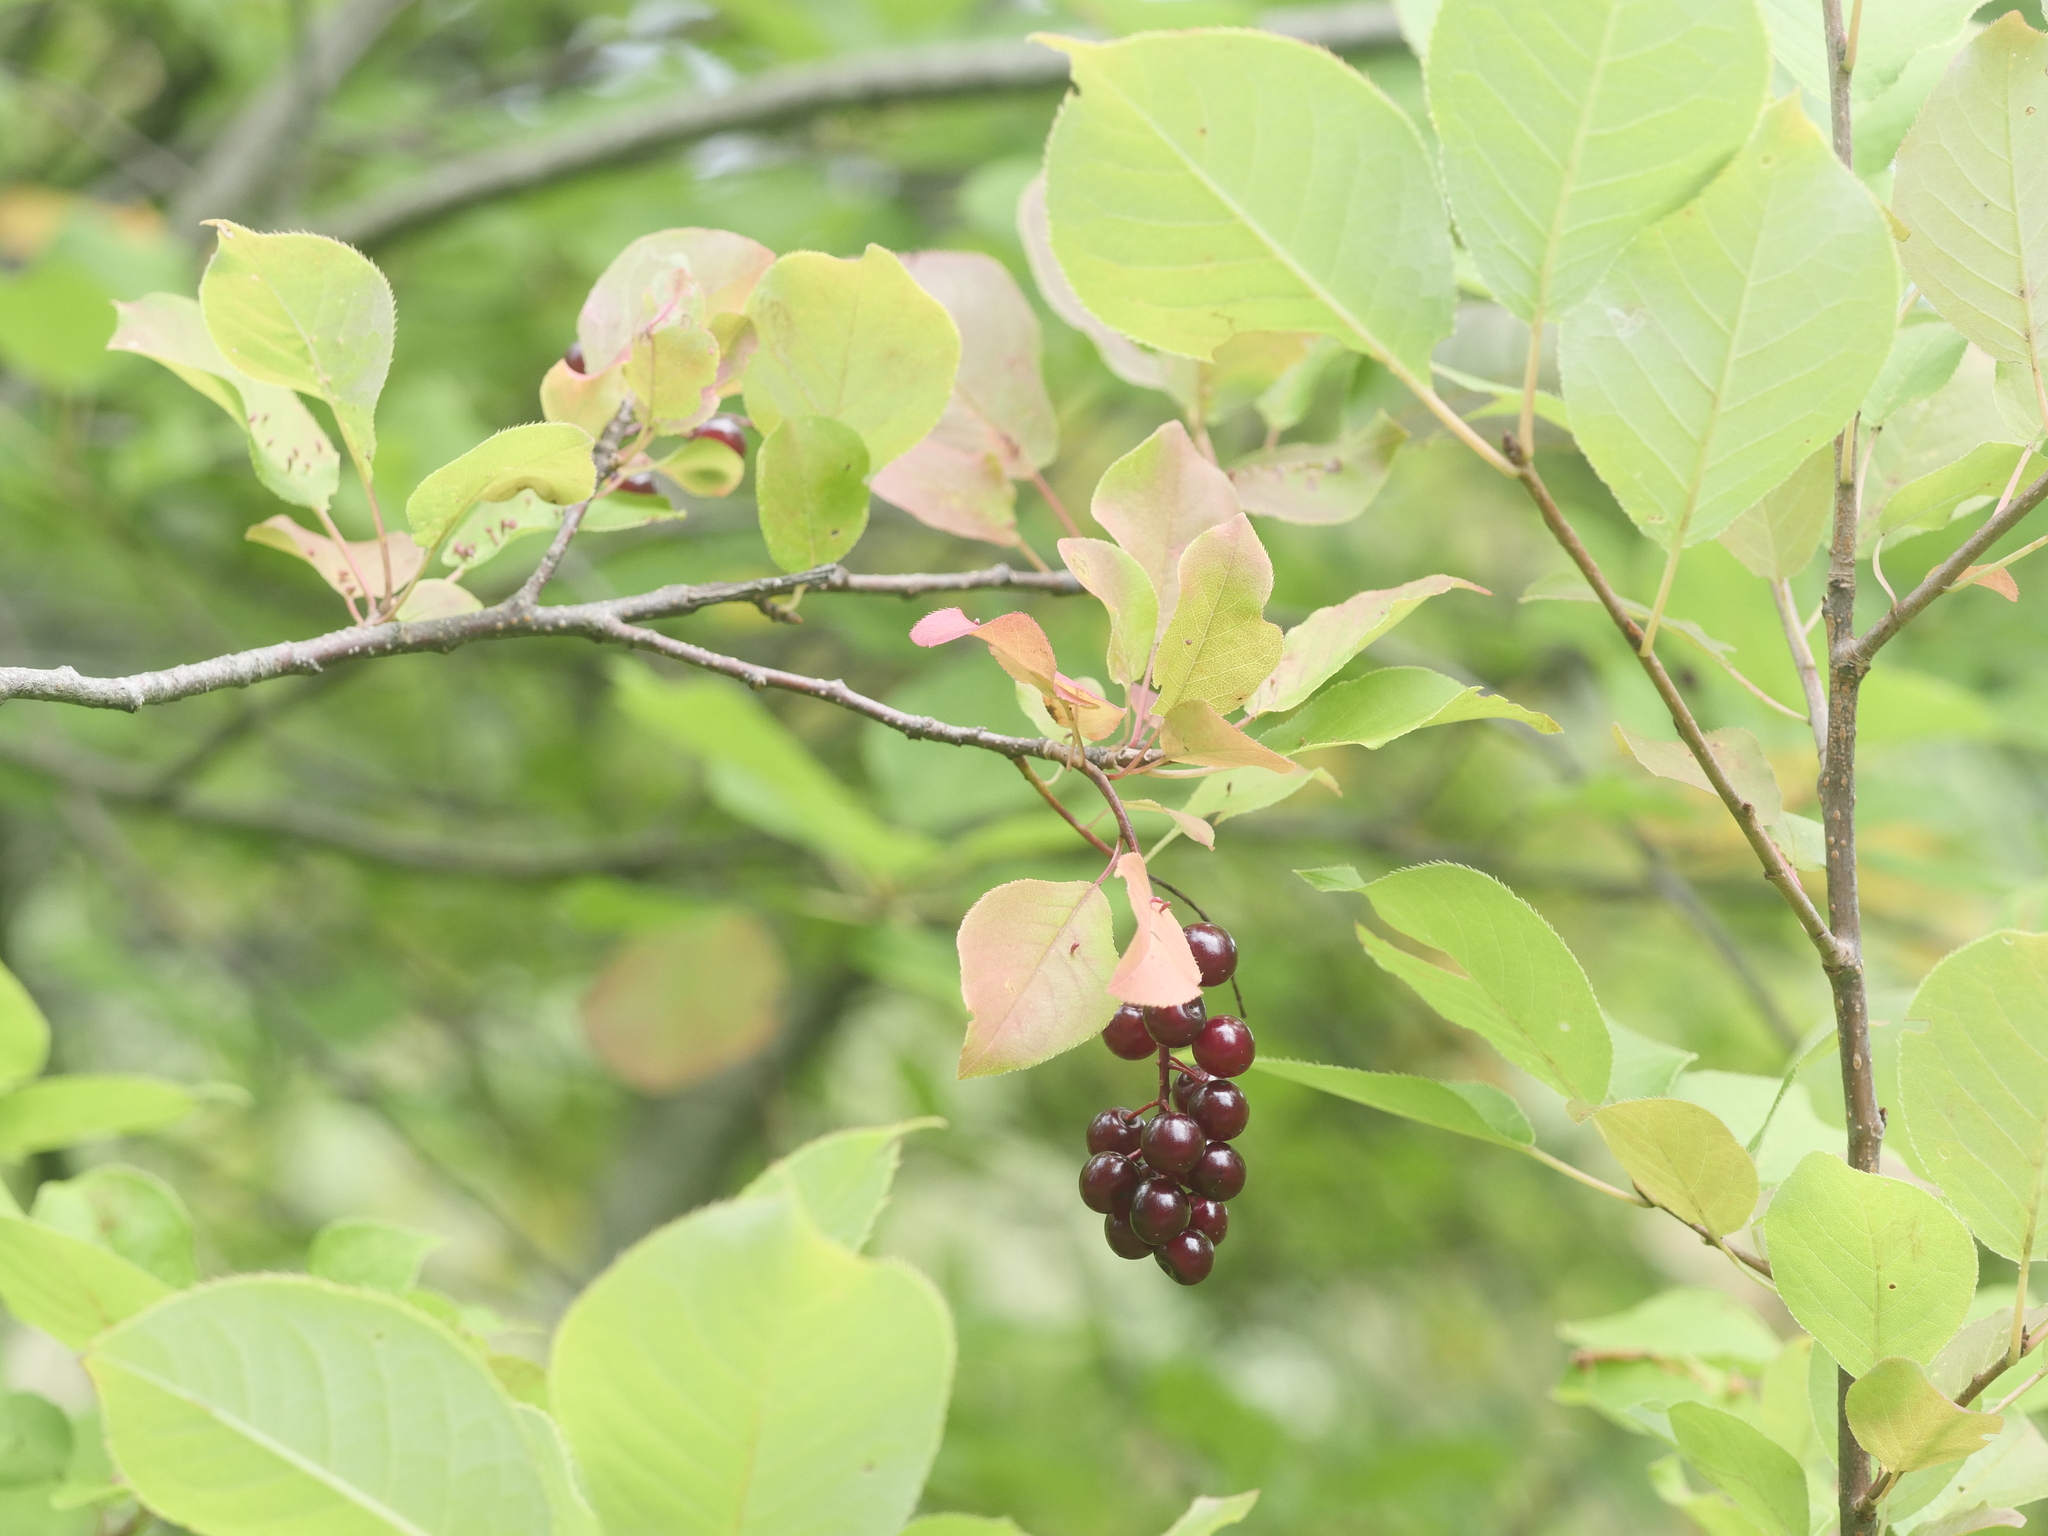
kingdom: Plantae
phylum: Tracheophyta
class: Magnoliopsida
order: Rosales
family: Rosaceae
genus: Prunus
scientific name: Prunus virginiana
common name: Chokecherry
